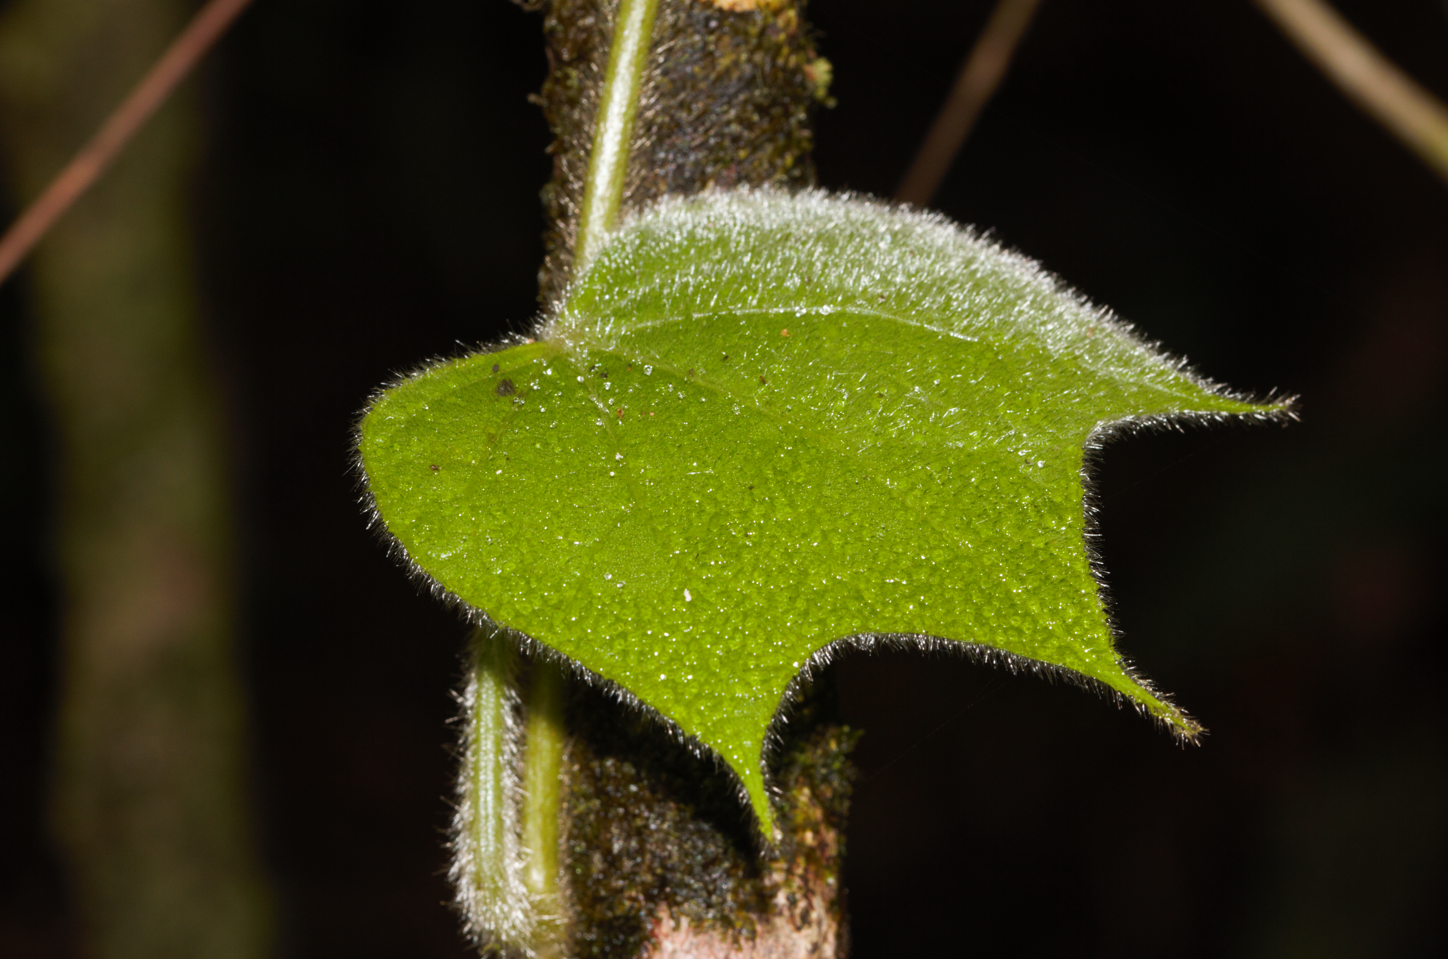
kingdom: Plantae
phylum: Tracheophyta
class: Magnoliopsida
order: Ranunculales
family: Menispermaceae
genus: Disciphania
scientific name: Disciphania lobata
